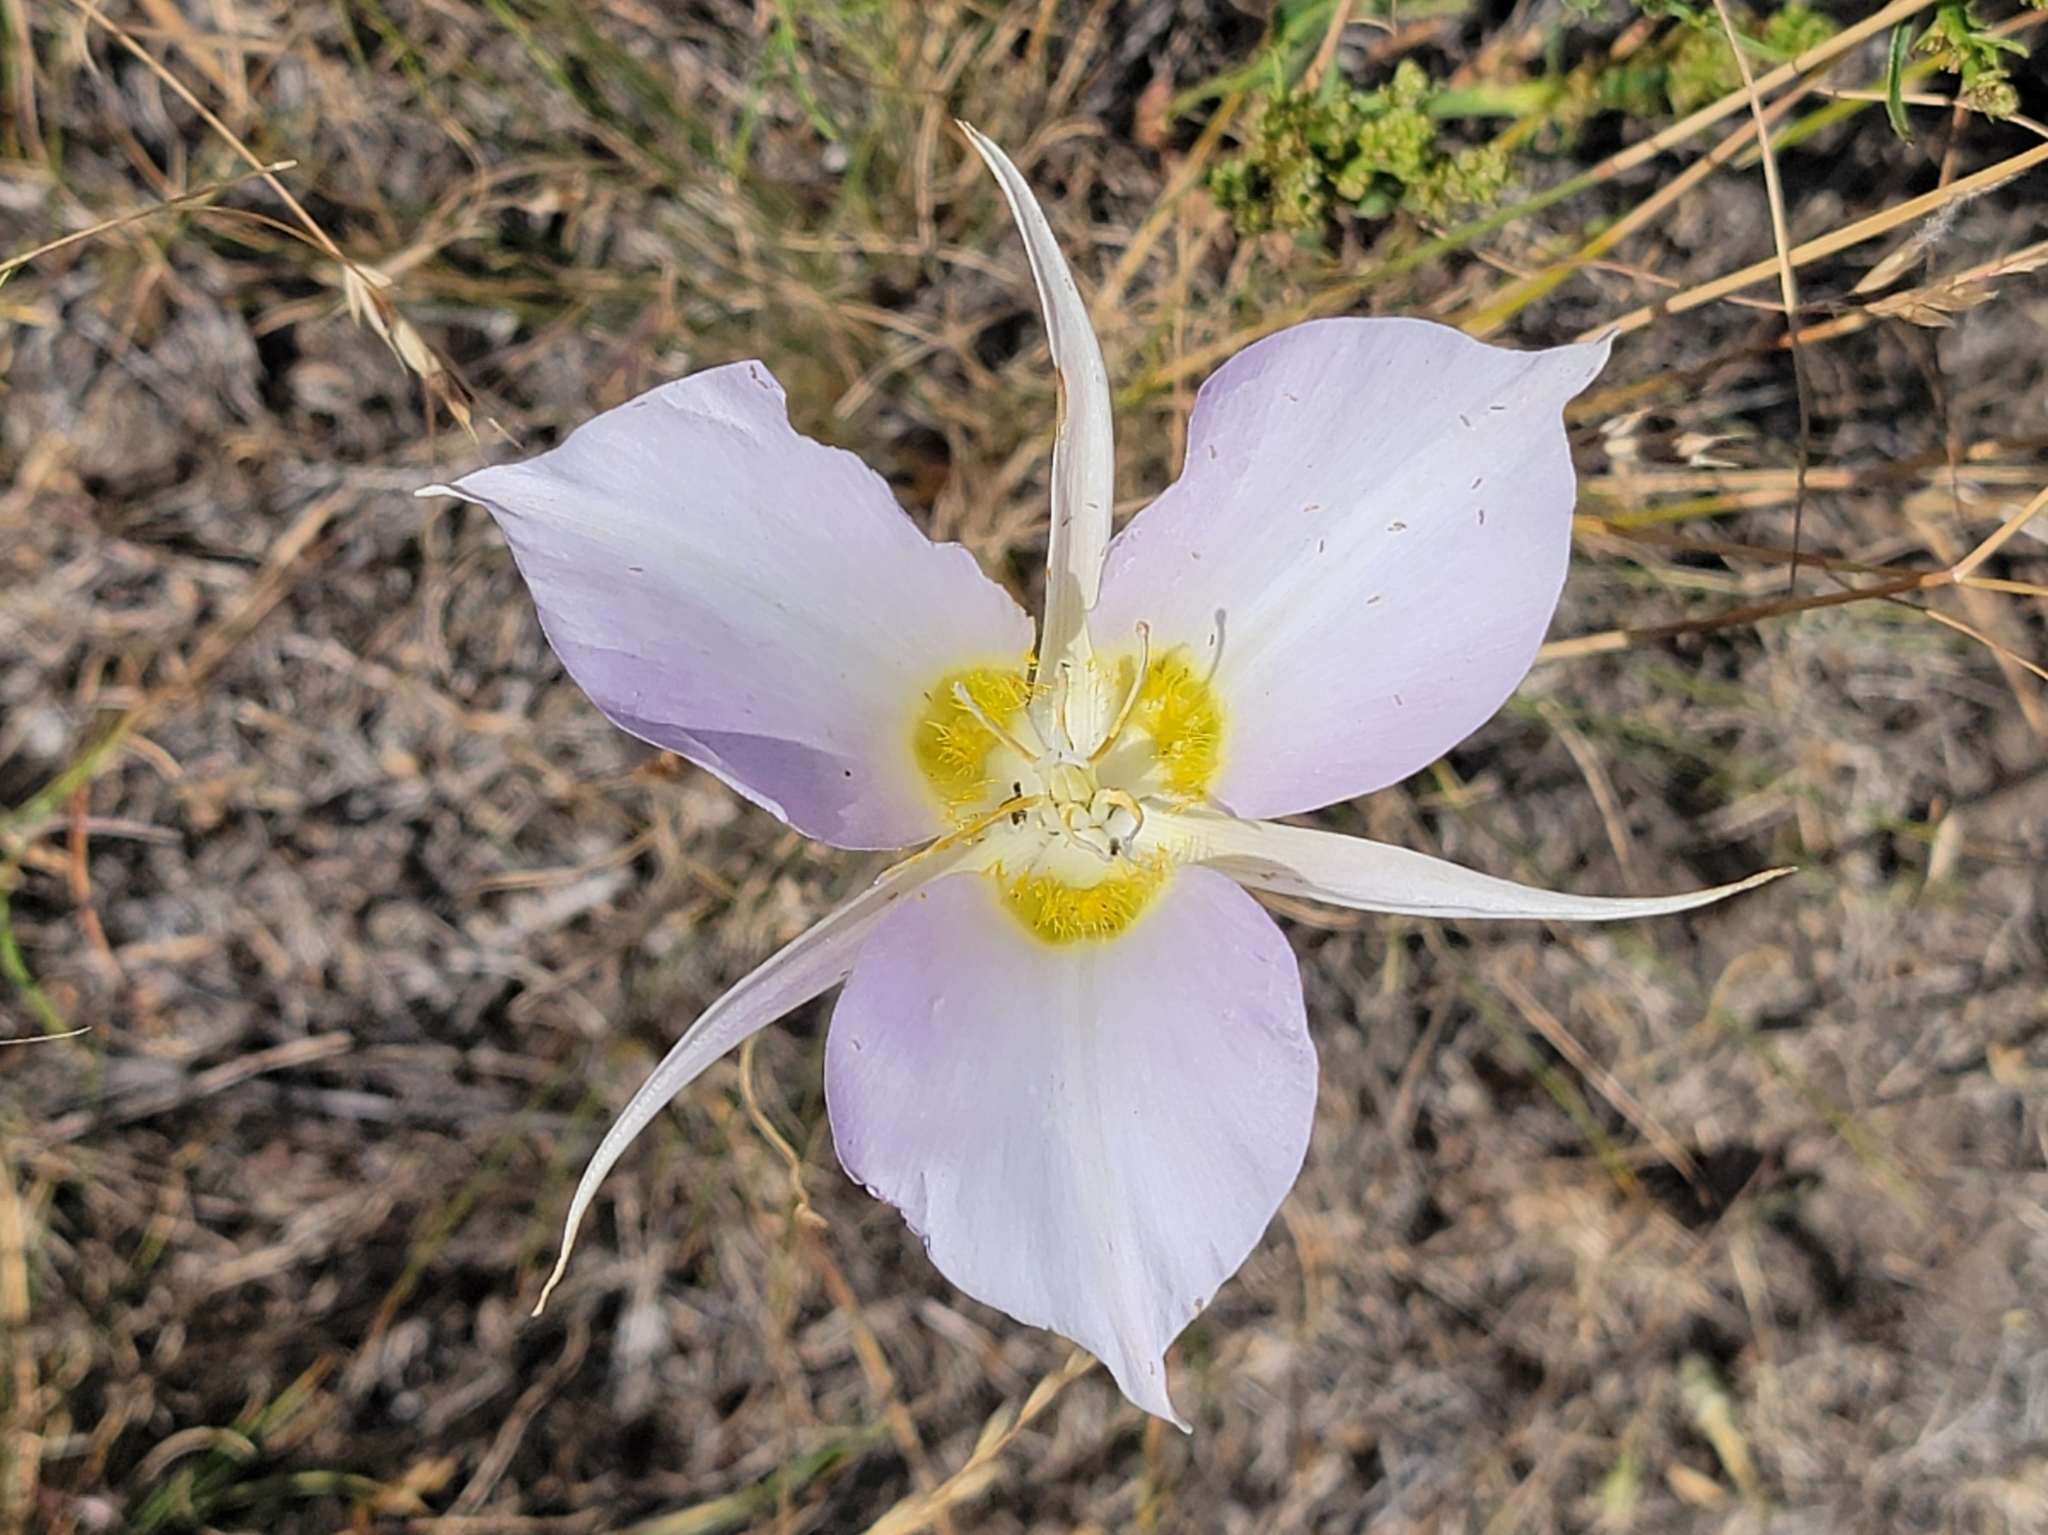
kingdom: Plantae
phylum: Tracheophyta
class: Liliopsida
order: Liliales
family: Liliaceae
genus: Calochortus
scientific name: Calochortus macrocarpus
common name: Green-band mariposa lily
